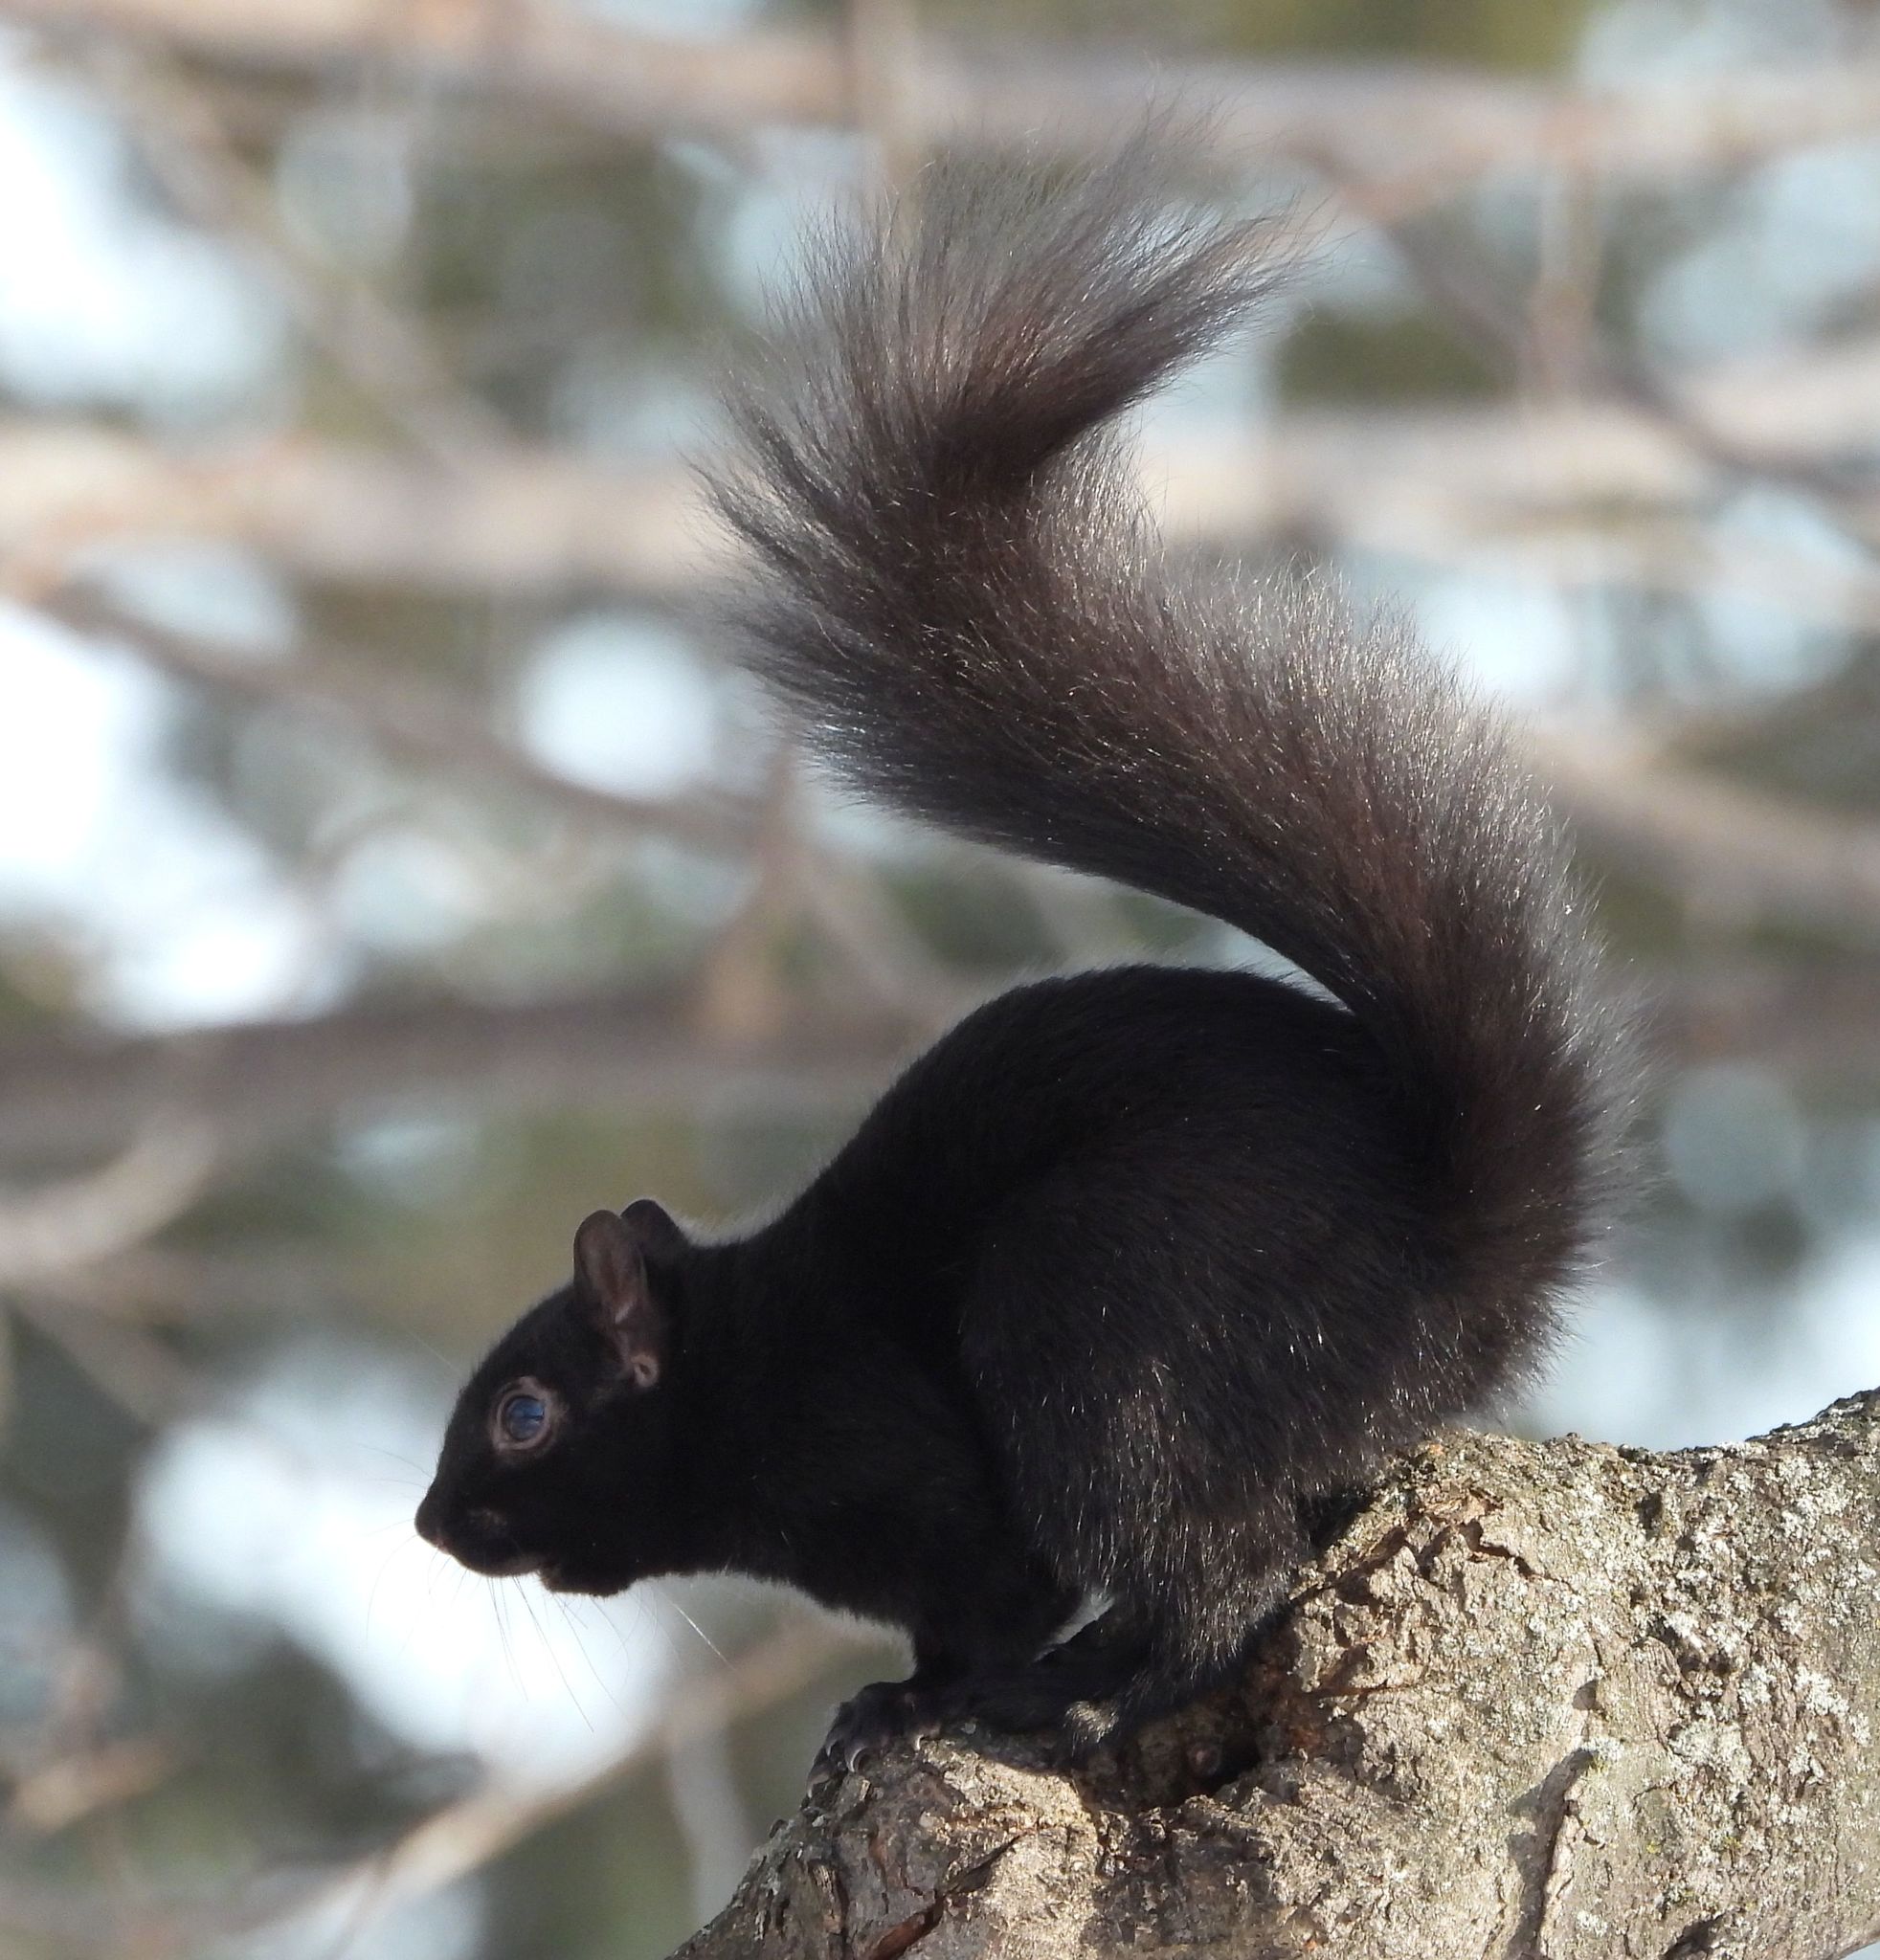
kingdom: Animalia
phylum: Chordata
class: Mammalia
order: Rodentia
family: Sciuridae
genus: Sciurus
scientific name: Sciurus carolinensis
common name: Eastern gray squirrel
